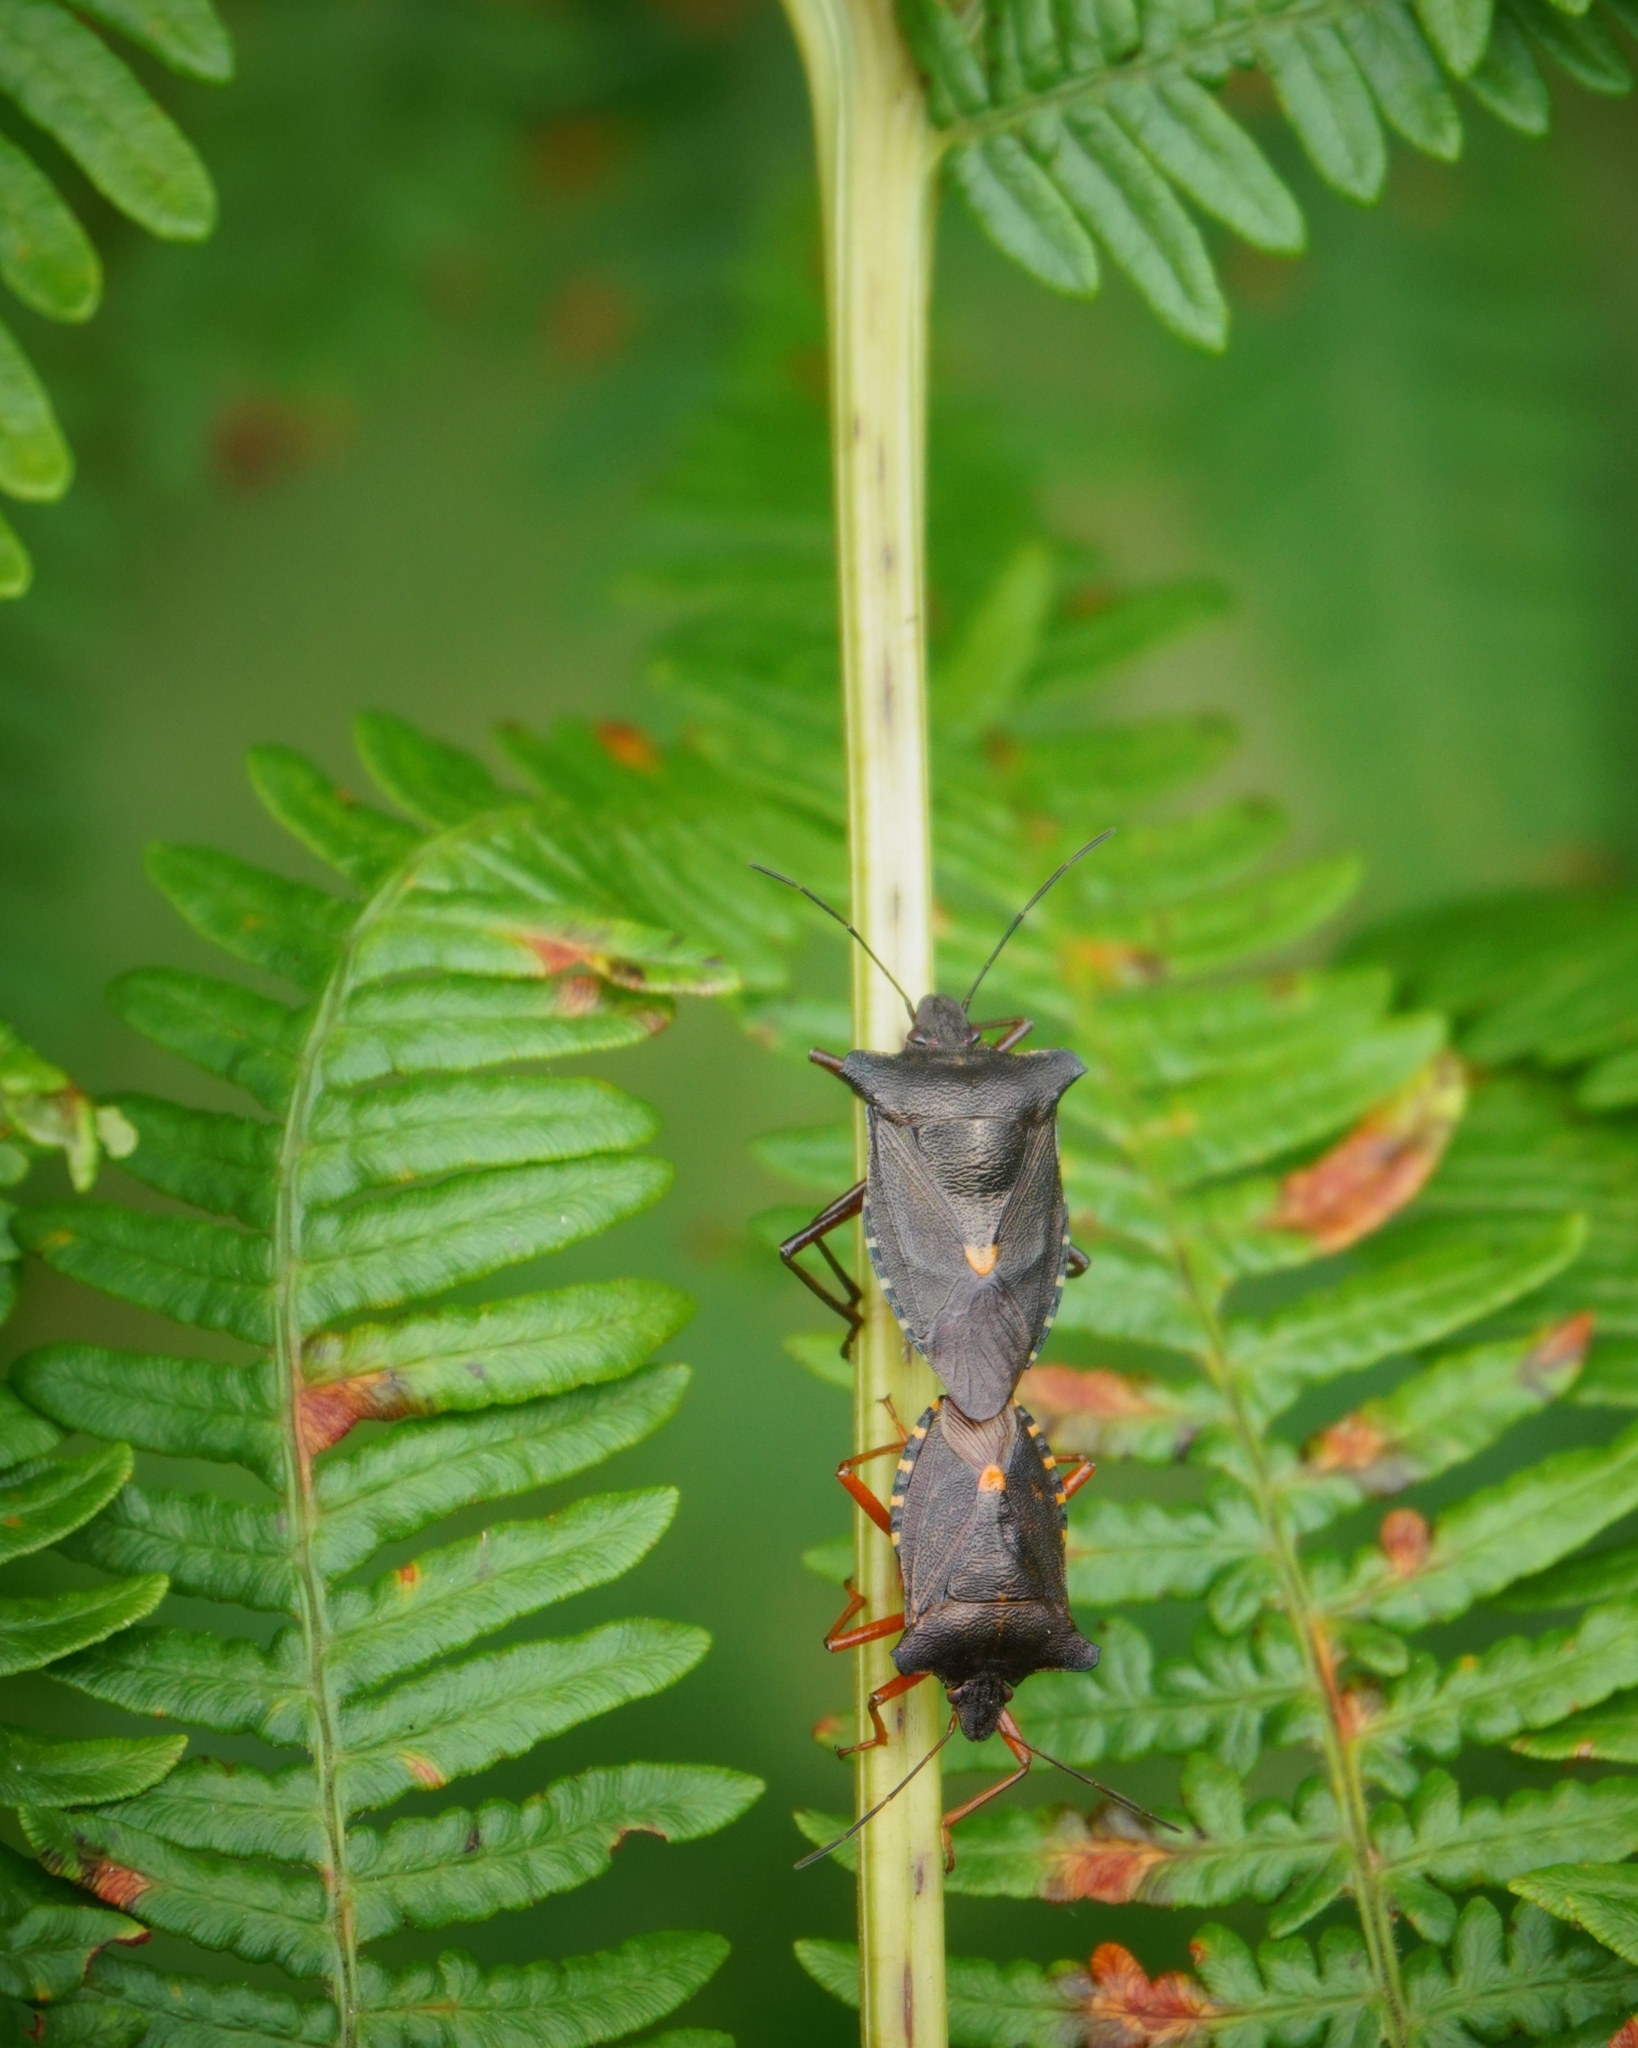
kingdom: Animalia
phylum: Arthropoda
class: Insecta
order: Hemiptera
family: Pentatomidae
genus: Pentatoma
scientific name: Pentatoma rufipes
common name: Forest bug
